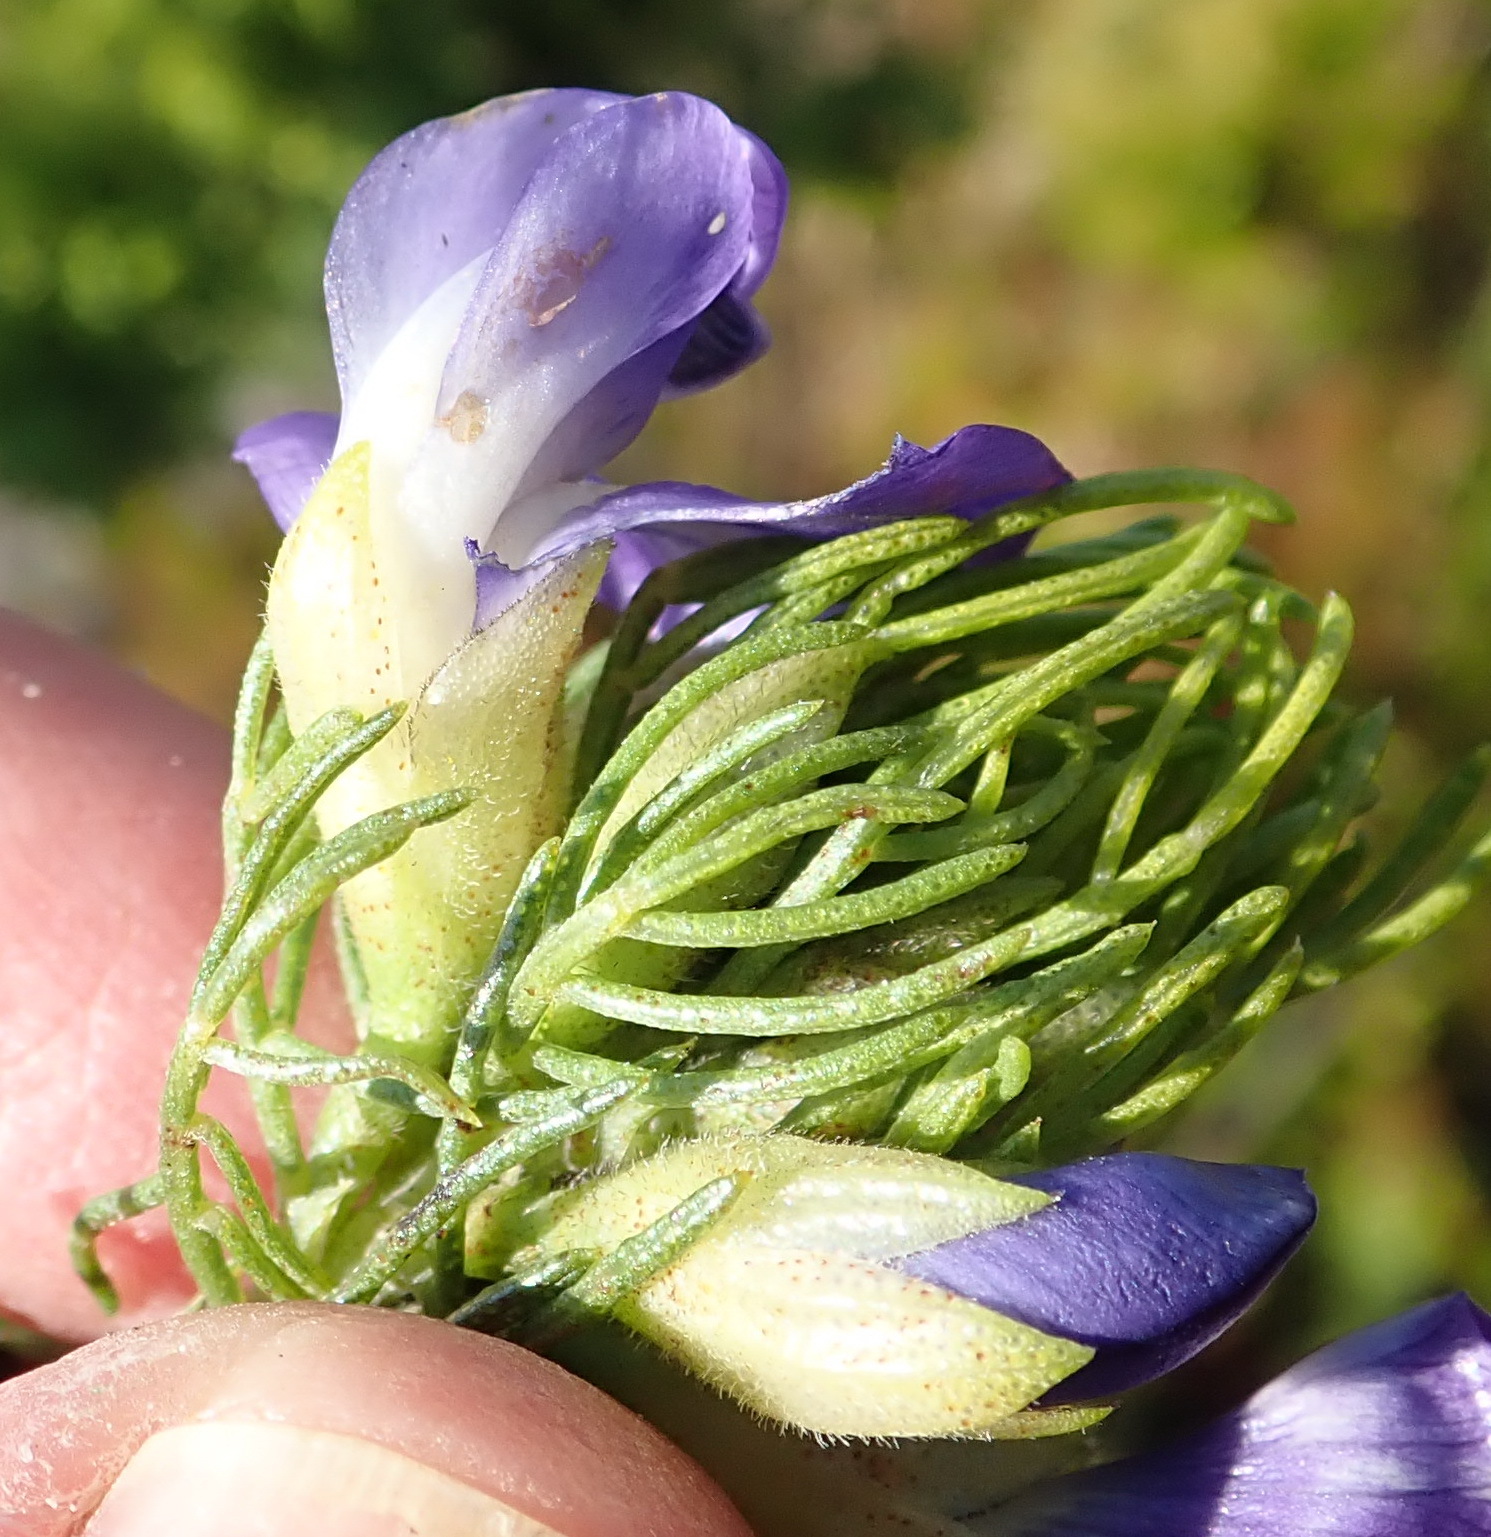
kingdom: Plantae
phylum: Tracheophyta
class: Magnoliopsida
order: Fabales
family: Fabaceae
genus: Psoralea
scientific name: Psoralea speciosa
